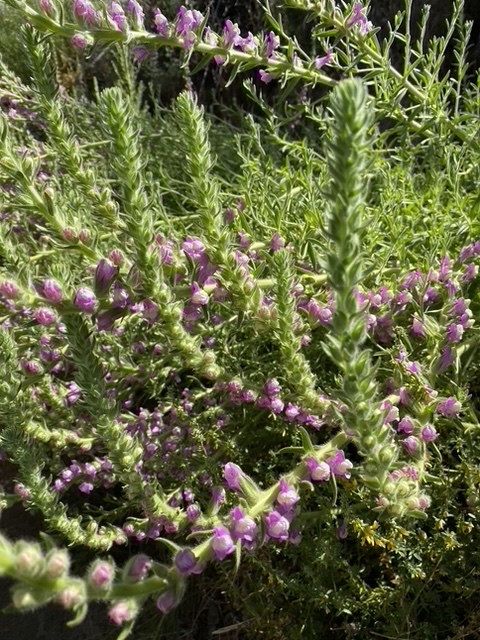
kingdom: Plantae
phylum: Tracheophyta
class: Magnoliopsida
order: Lamiales
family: Plantaginaceae
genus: Sairocarpus
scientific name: Sairocarpus multiflorus
